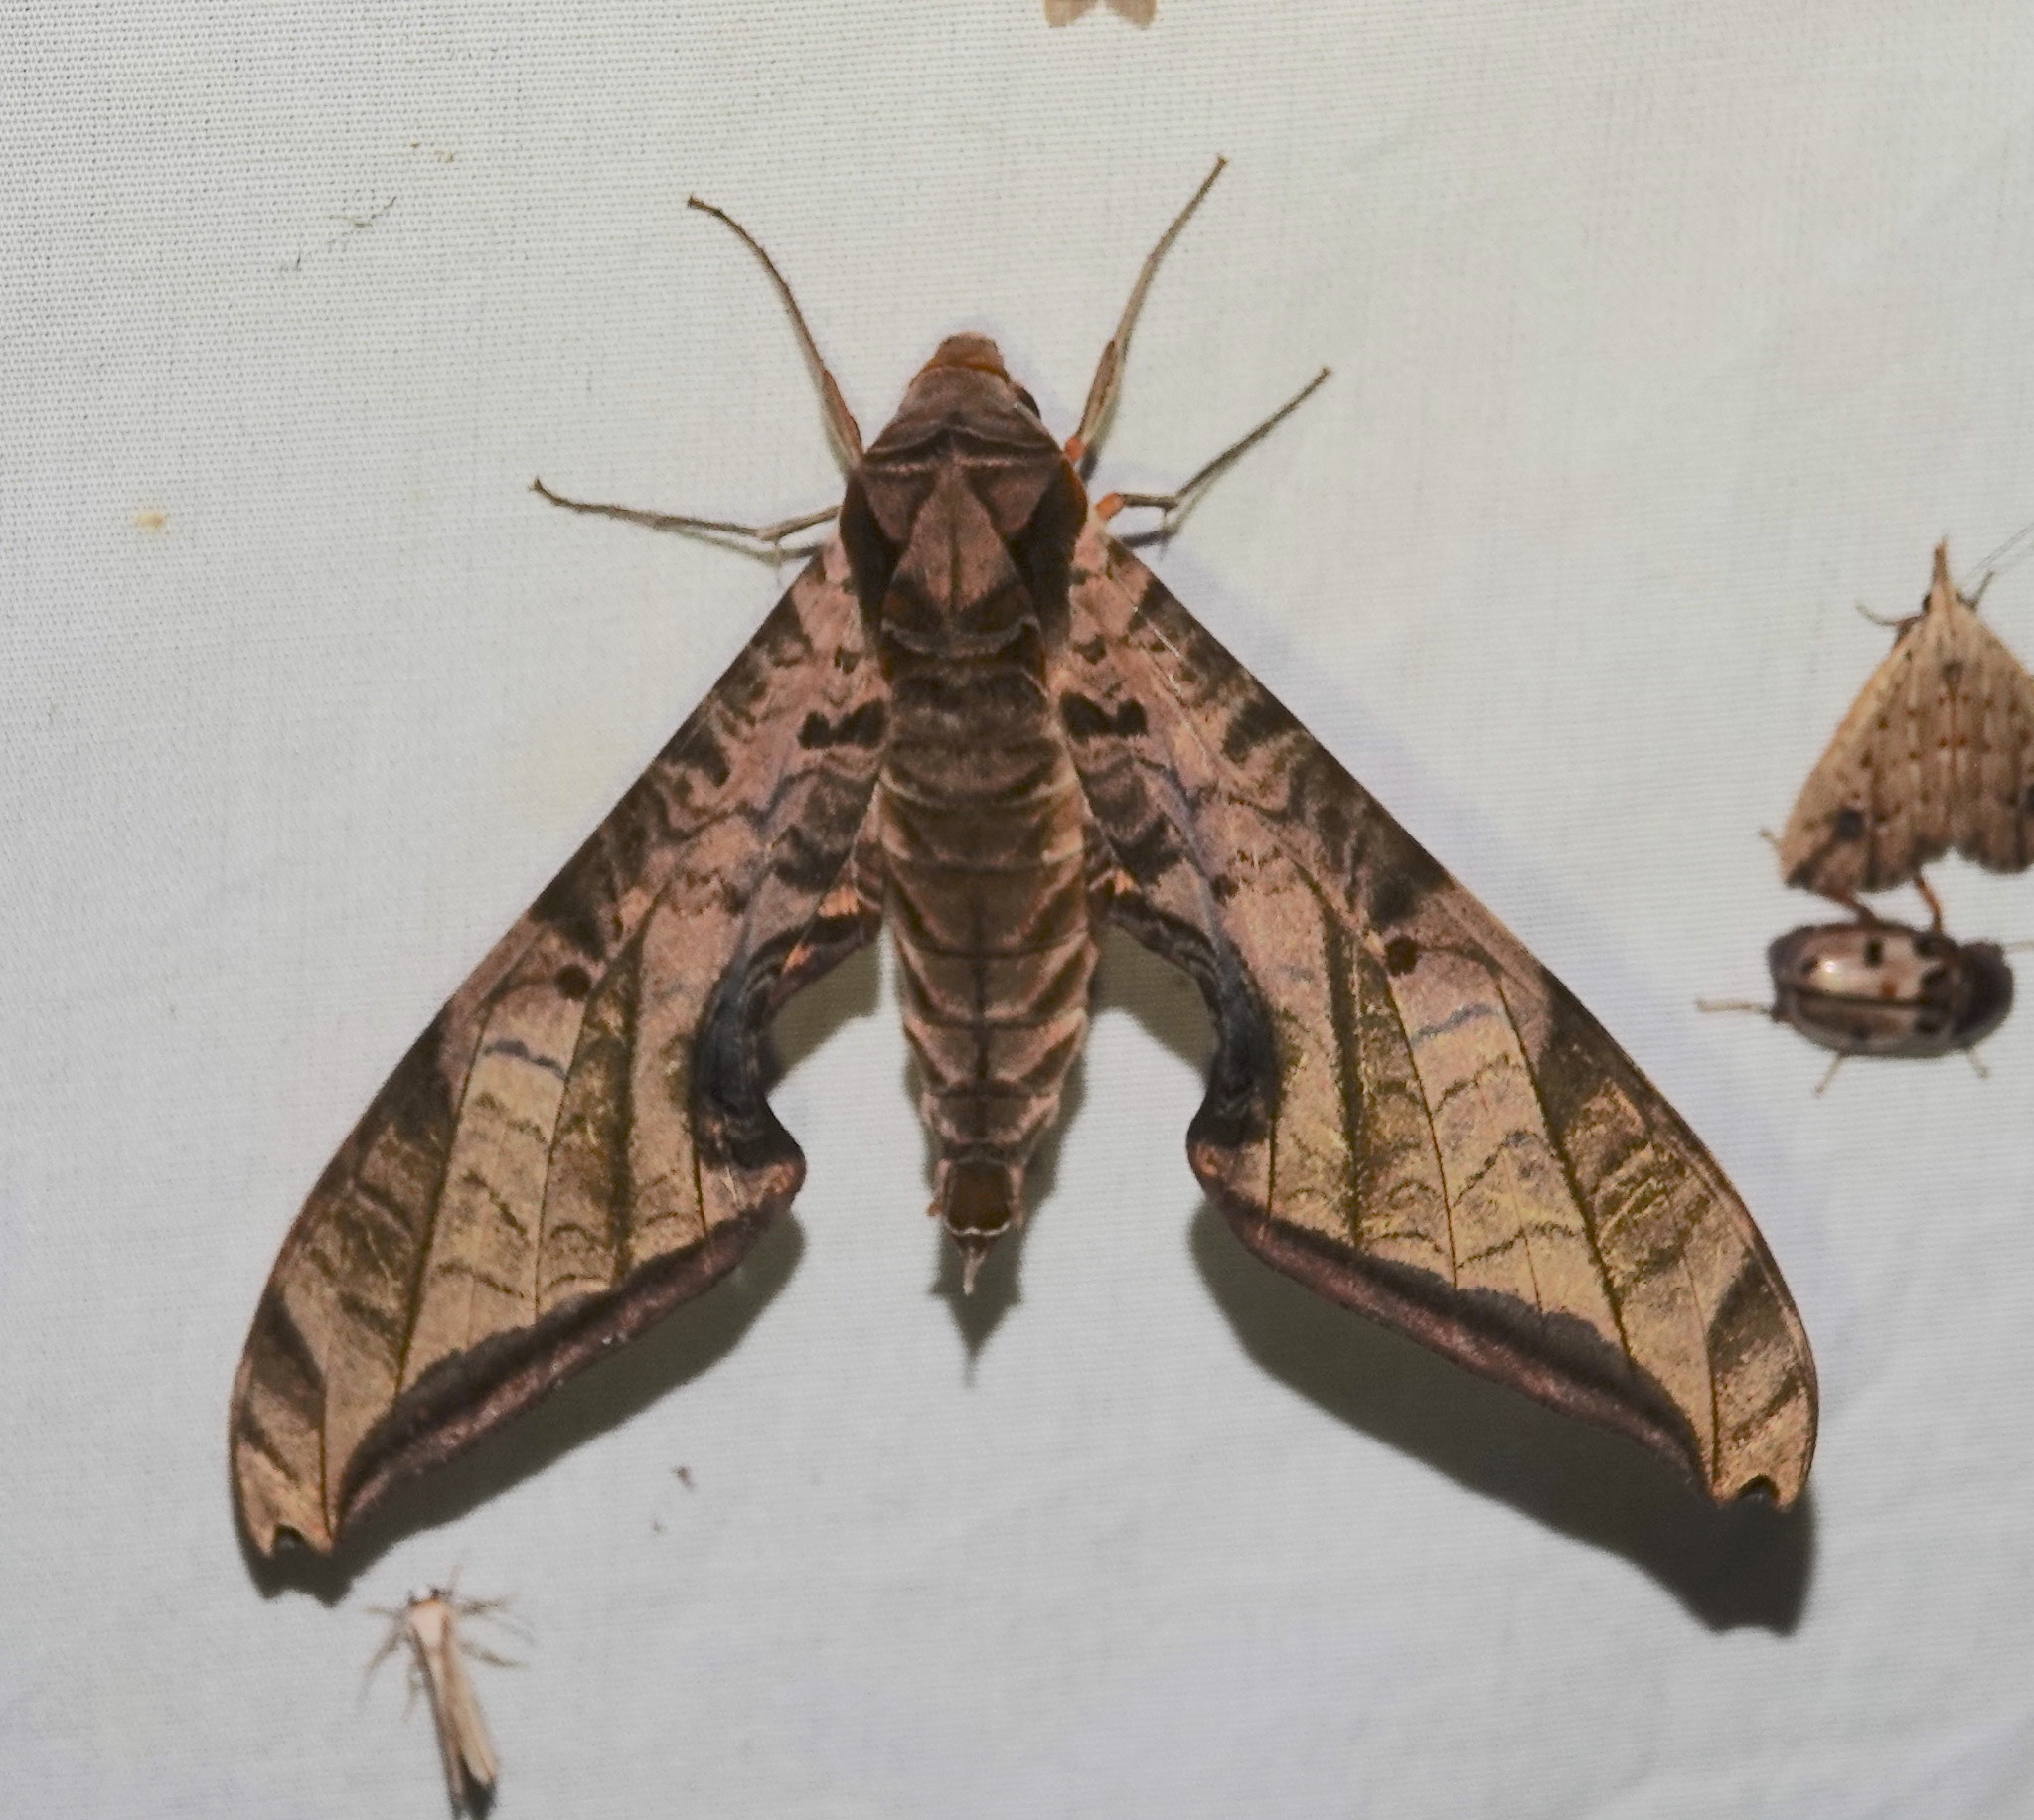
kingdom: Animalia
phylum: Arthropoda
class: Insecta
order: Lepidoptera
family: Sphingidae
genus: Protambulyx
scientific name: Protambulyx euryalus
